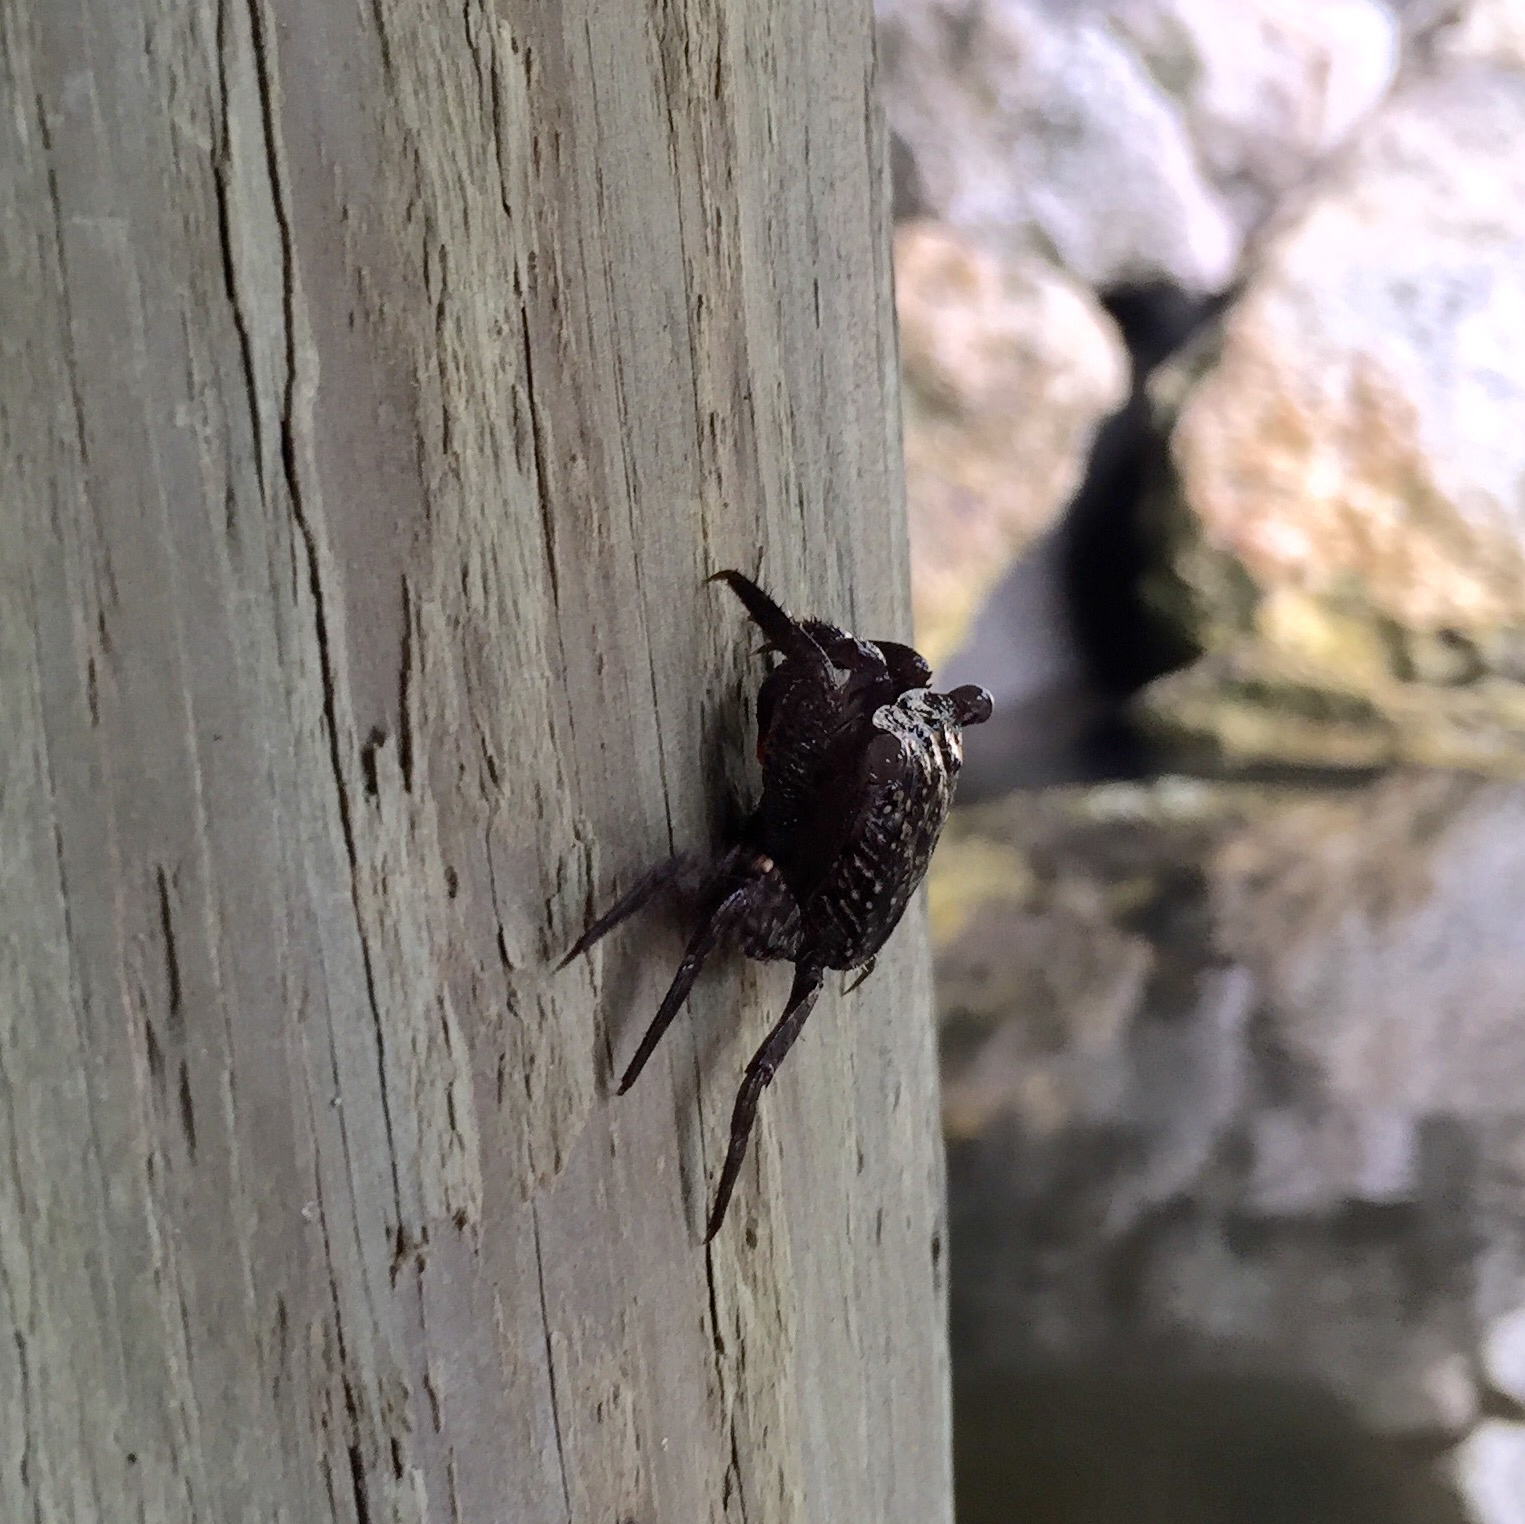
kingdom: Animalia
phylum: Arthropoda
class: Malacostraca
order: Decapoda
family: Sesarmidae
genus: Aratus
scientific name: Aratus pisonii
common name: Mangrove crab
